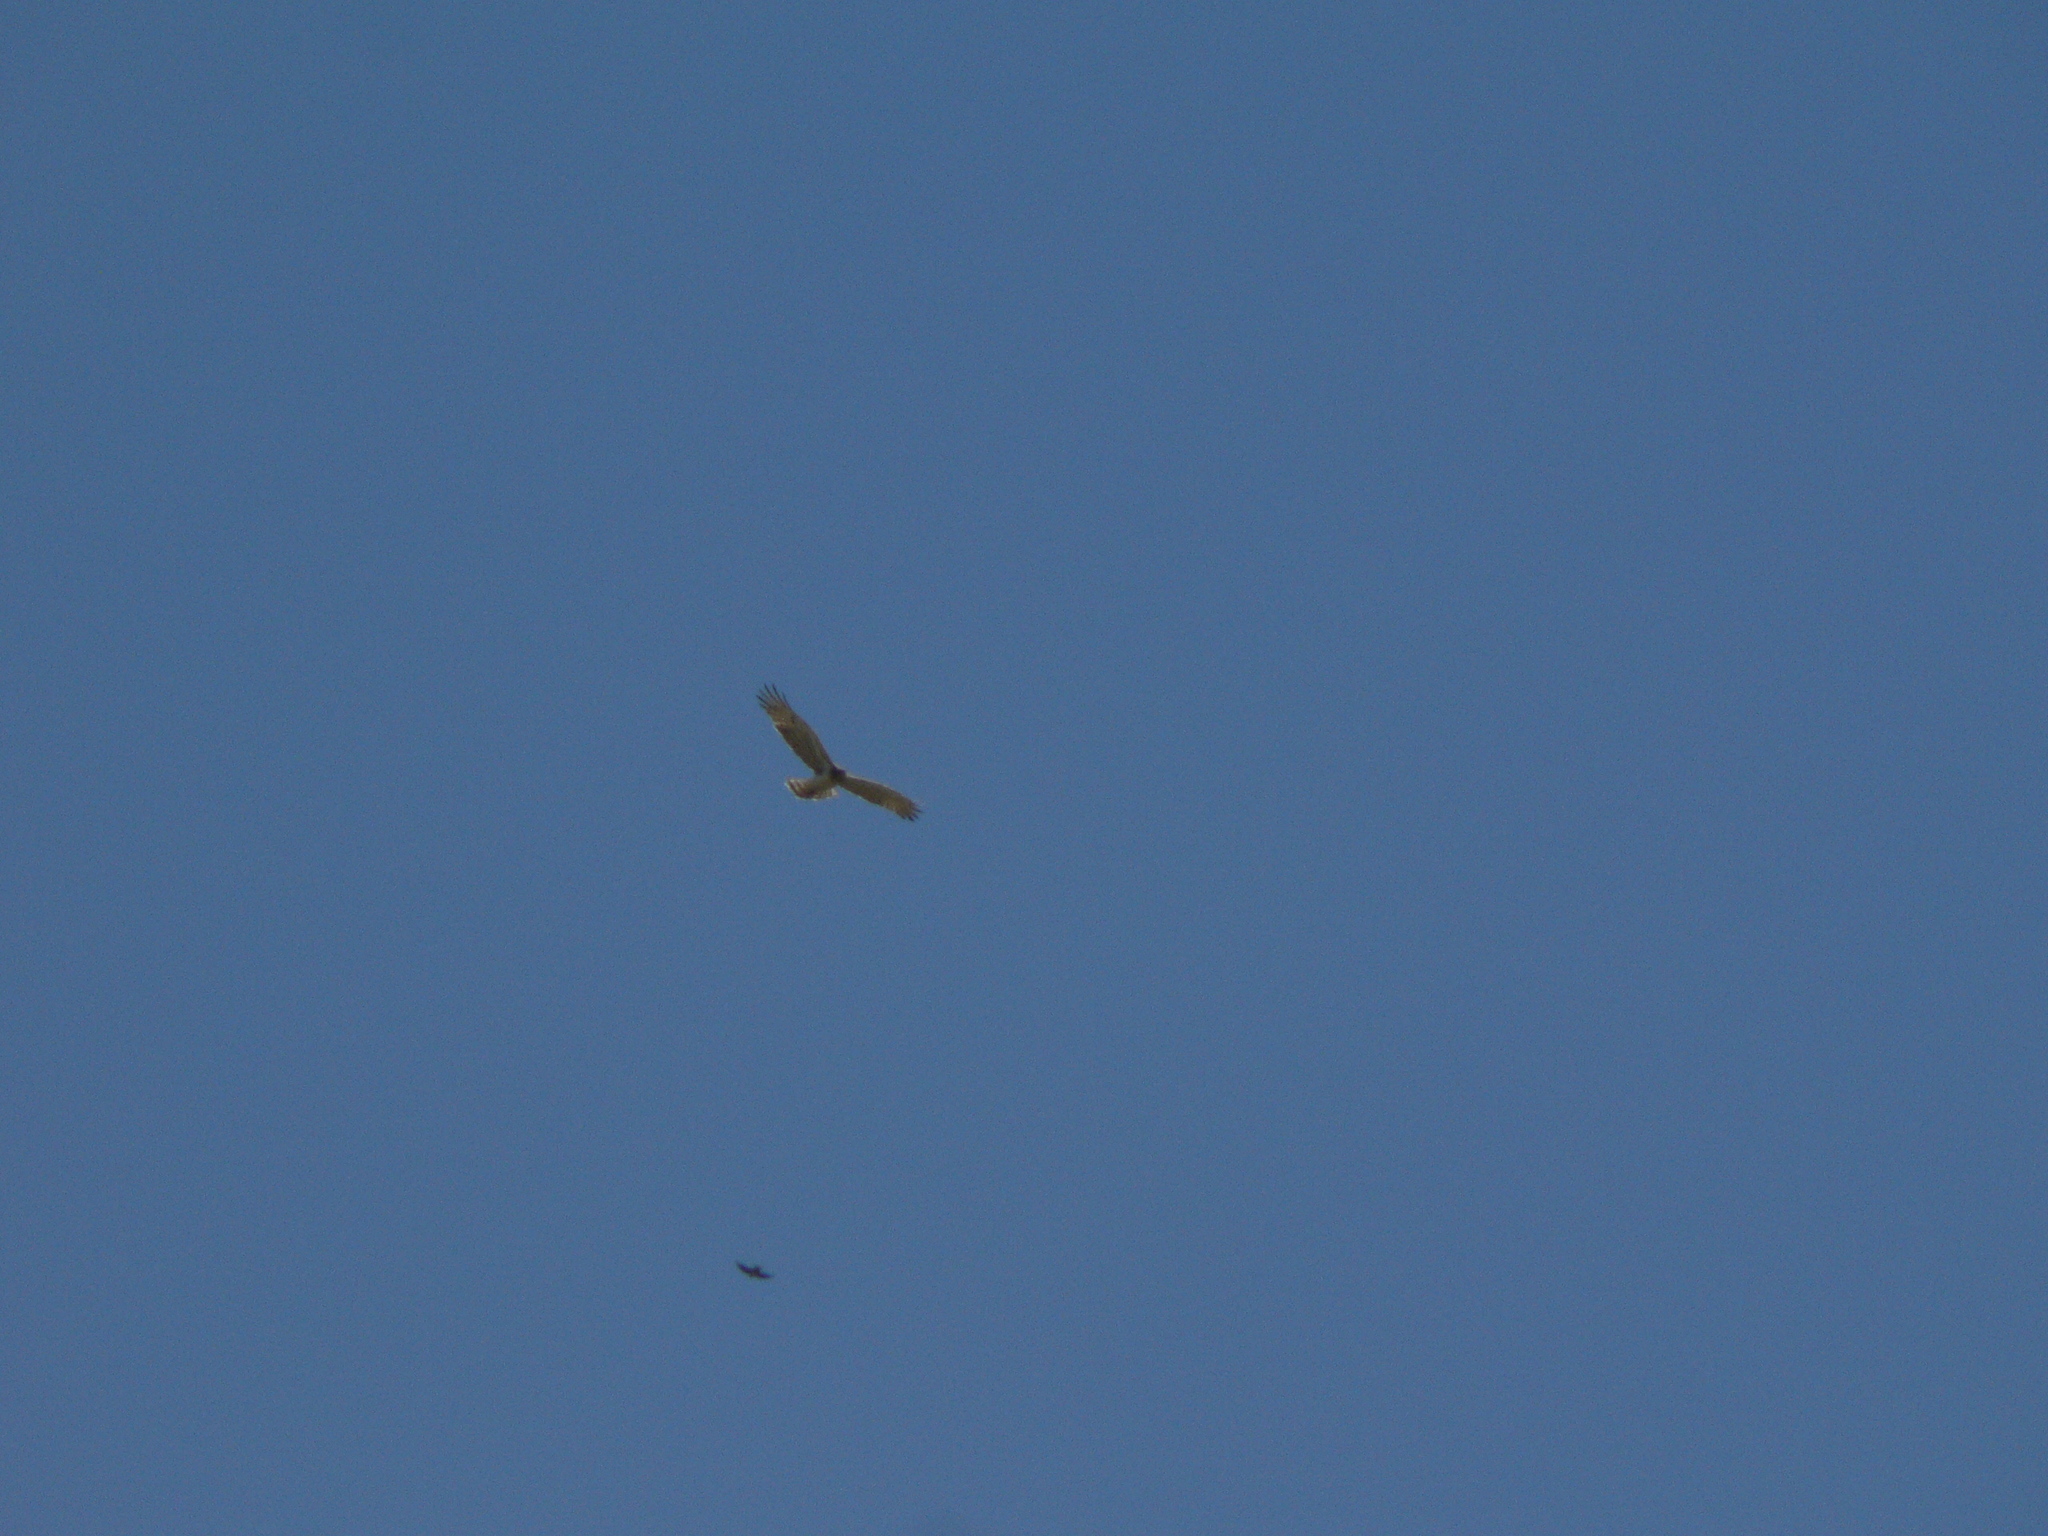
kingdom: Animalia
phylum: Chordata
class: Aves
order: Accipitriformes
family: Accipitridae
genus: Circaetus
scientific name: Circaetus gallicus
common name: Short-toed snake eagle
